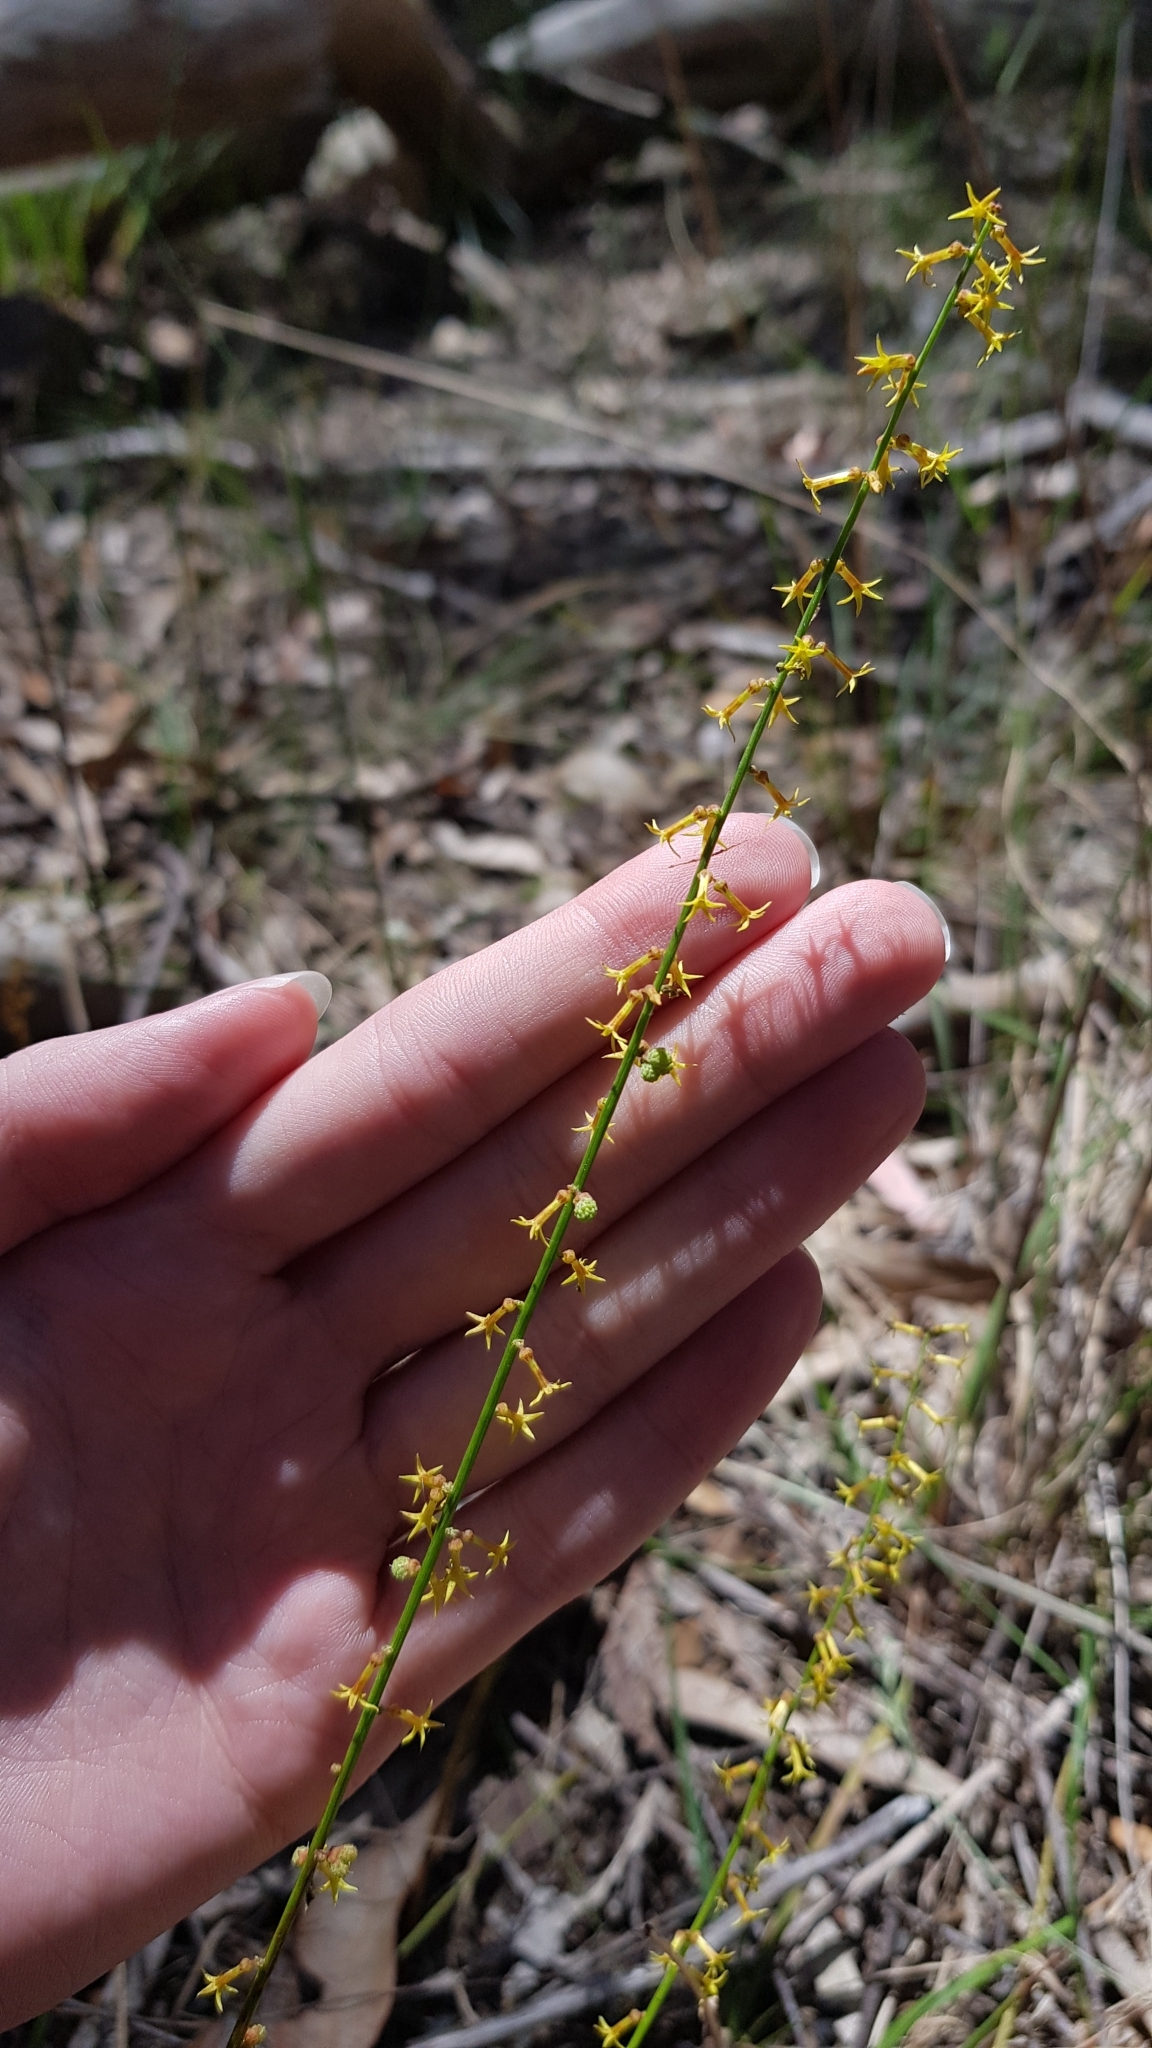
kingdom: Plantae
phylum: Tracheophyta
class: Magnoliopsida
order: Celastrales
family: Celastraceae
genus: Stackhousia
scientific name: Stackhousia viminea
